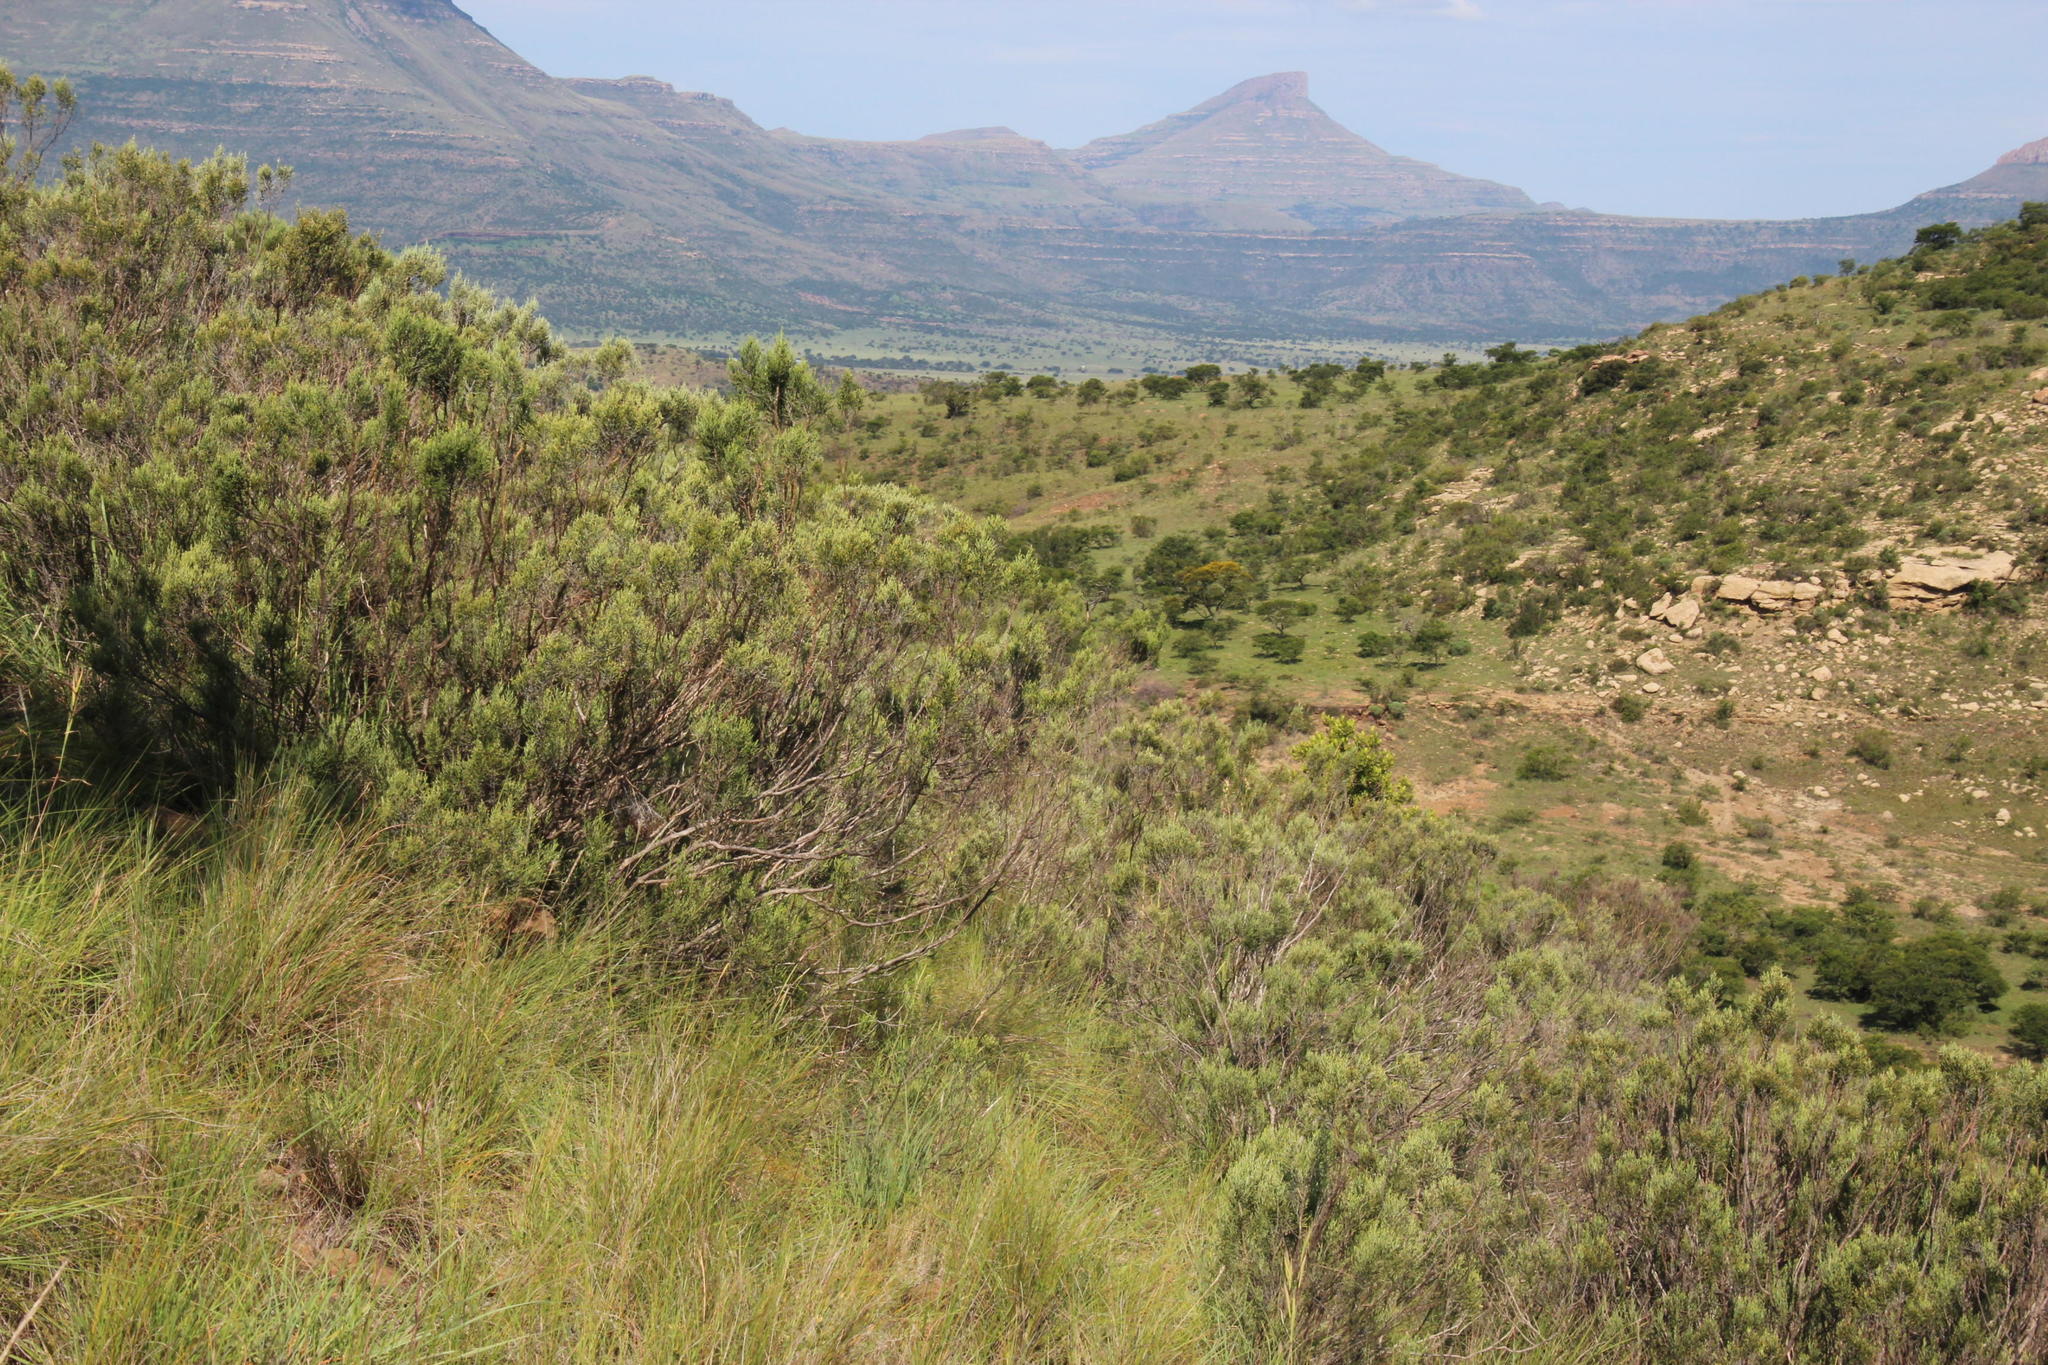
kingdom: Plantae
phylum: Tracheophyta
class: Magnoliopsida
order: Asterales
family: Asteraceae
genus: Dicerothamnus
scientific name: Dicerothamnus rhinocerotis
